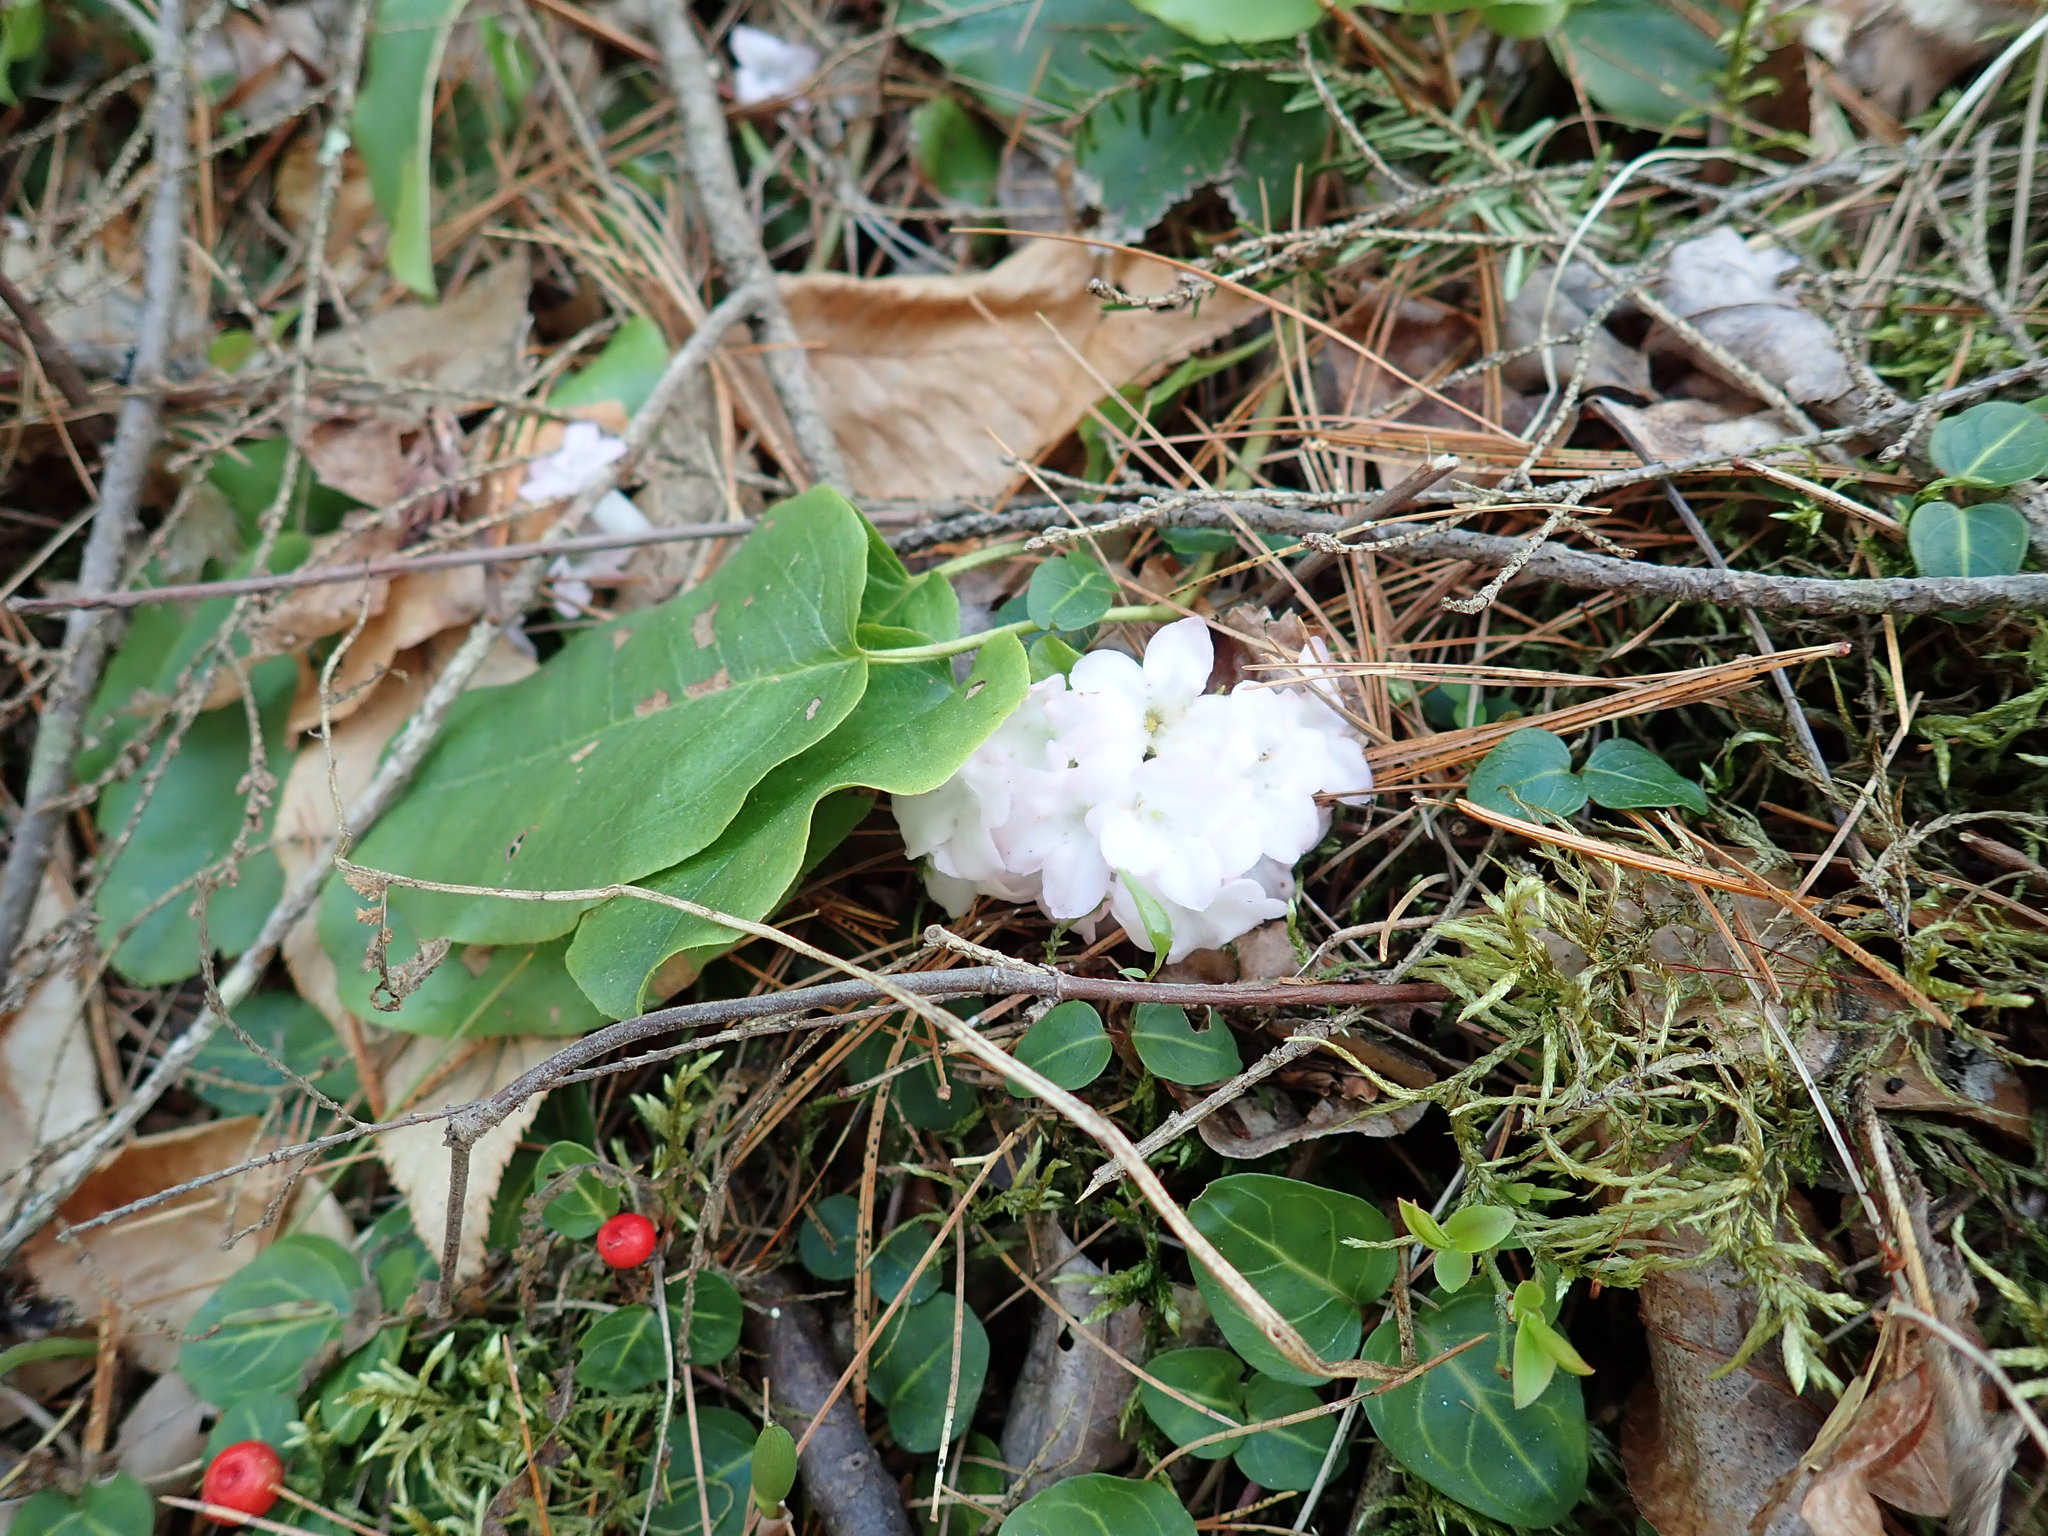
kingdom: Plantae
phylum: Tracheophyta
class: Magnoliopsida
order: Ericales
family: Ericaceae
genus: Epigaea
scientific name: Epigaea repens
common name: Gravelroot
